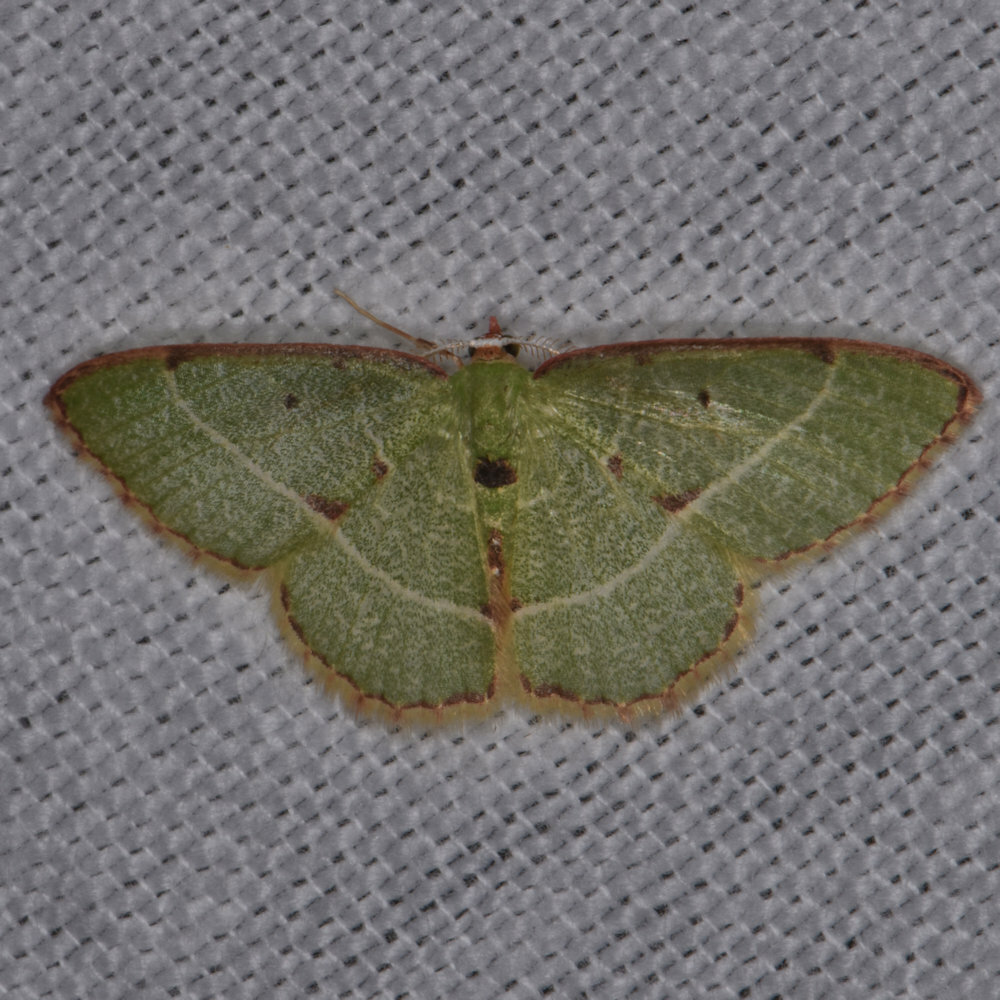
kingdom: Animalia
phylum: Arthropoda
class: Insecta
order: Lepidoptera
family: Geometridae
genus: Nemoria
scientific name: Nemoria vermiculata
